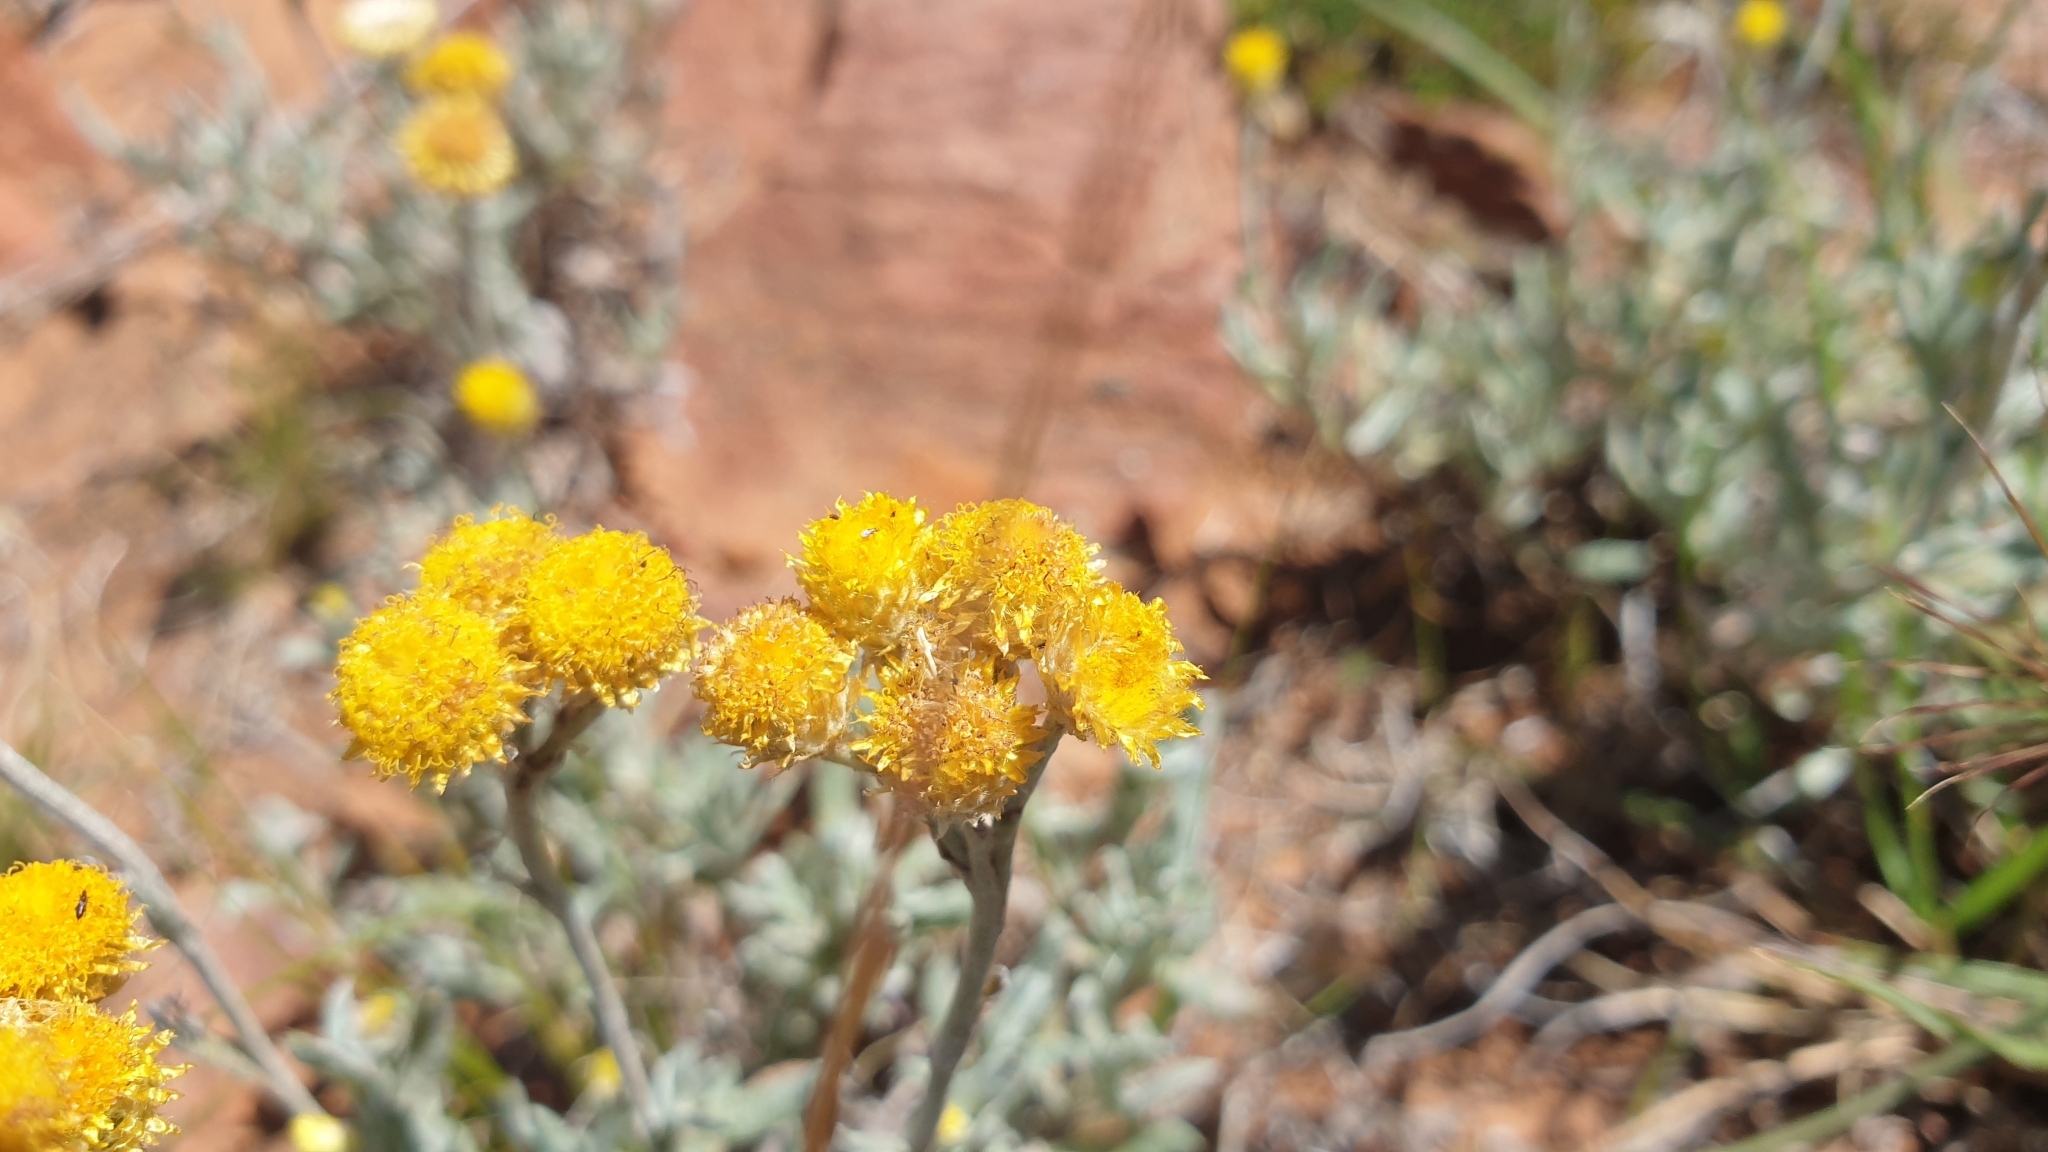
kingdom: Plantae
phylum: Tracheophyta
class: Magnoliopsida
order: Asterales
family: Asteraceae
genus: Chrysocephalum
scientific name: Chrysocephalum apiculatum
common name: Common everlasting
